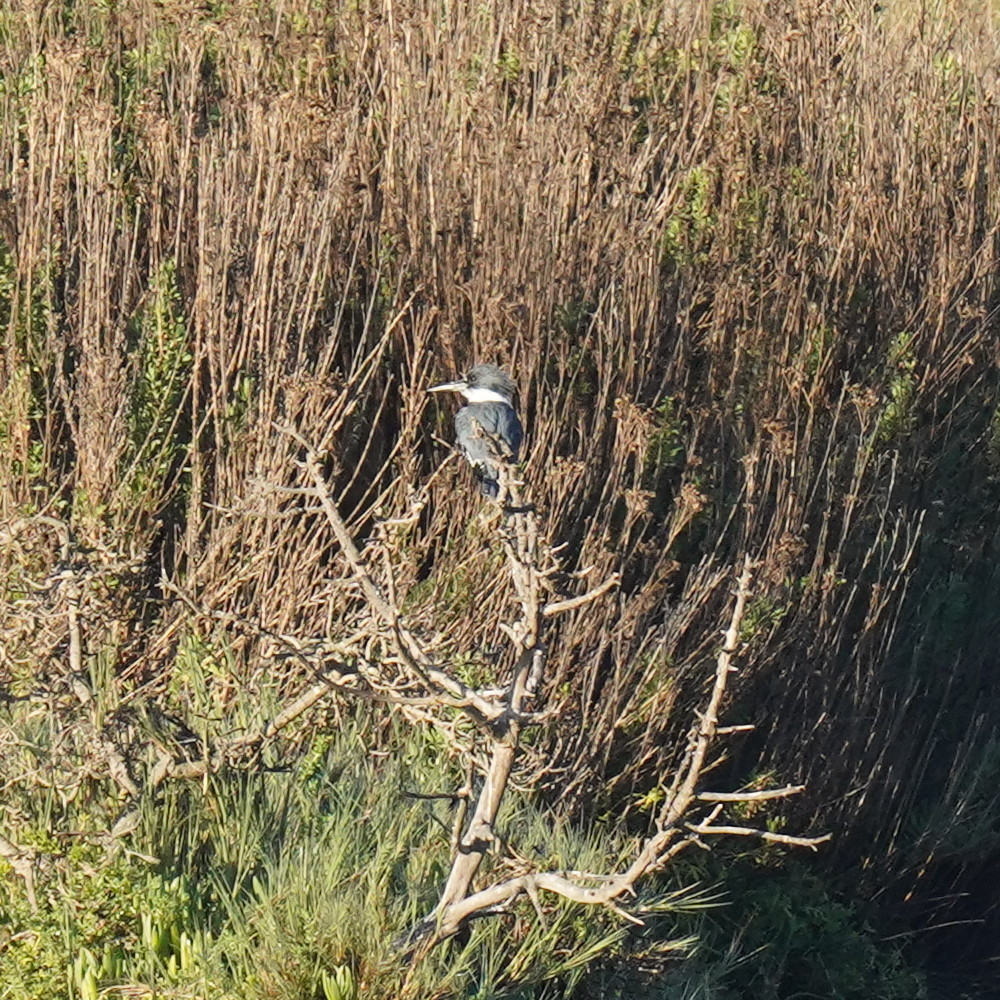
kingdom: Animalia
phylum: Chordata
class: Aves
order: Coraciiformes
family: Alcedinidae
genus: Megaceryle
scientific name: Megaceryle alcyon
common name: Belted kingfisher
